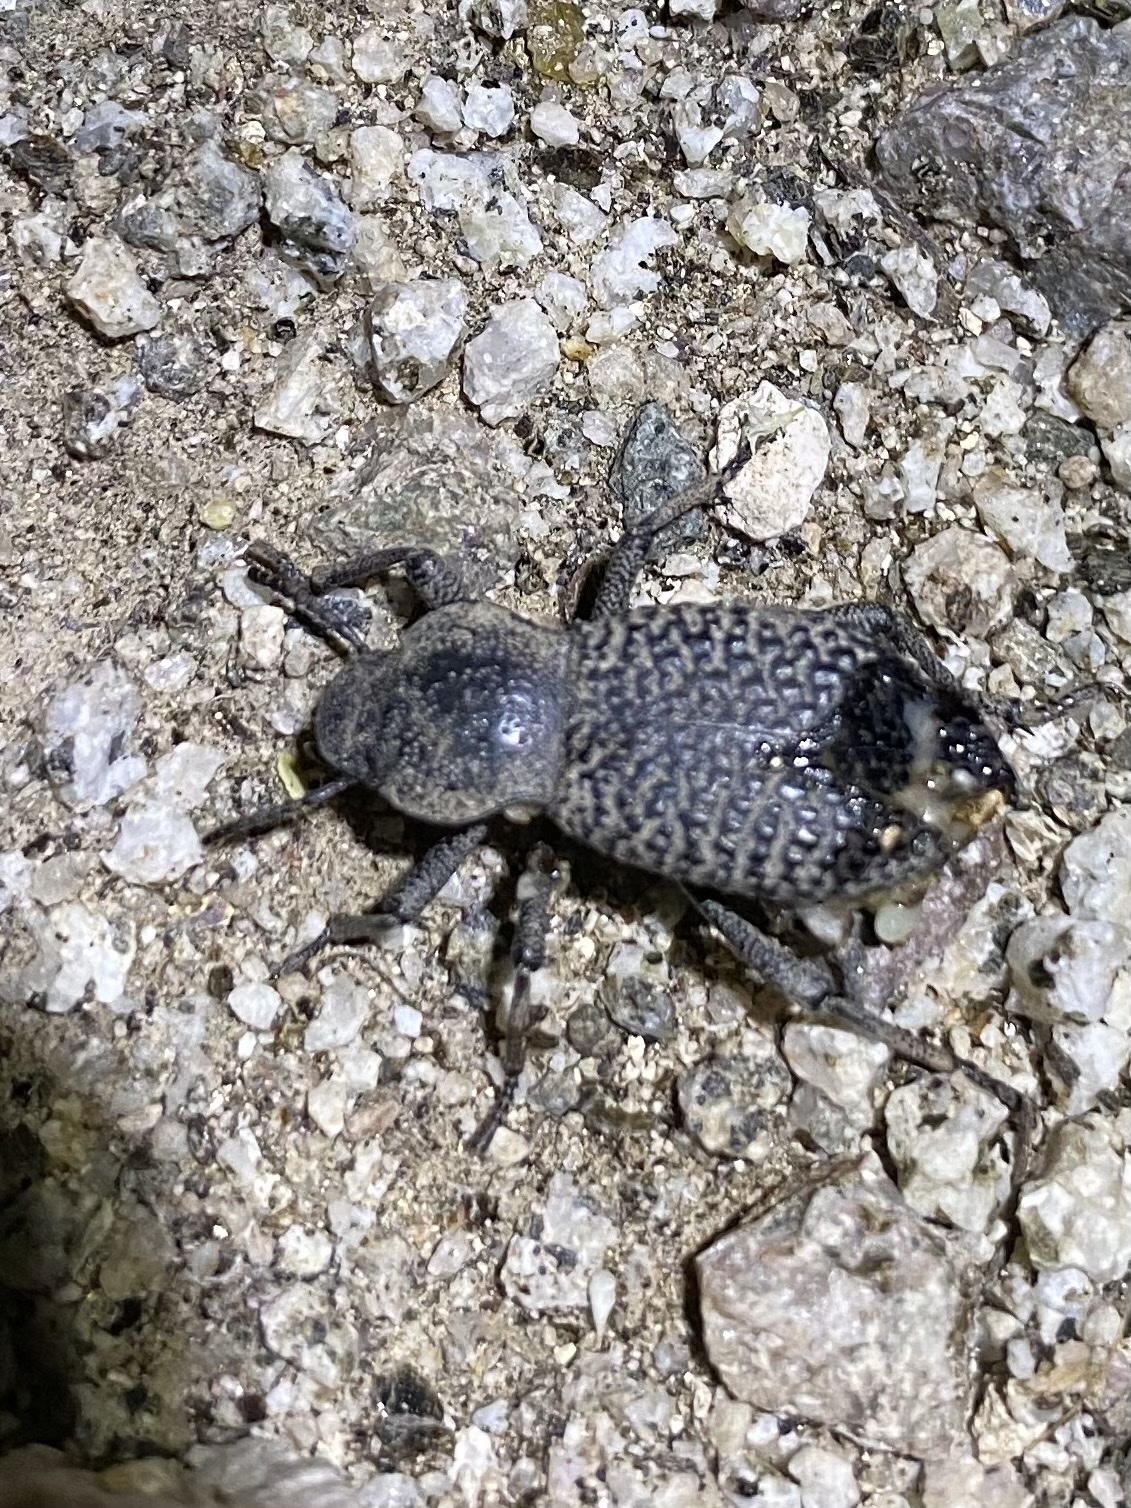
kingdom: Animalia
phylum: Arthropoda
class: Insecta
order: Coleoptera
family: Tenebrionidae
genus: Cryptoglossa
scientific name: Cryptoglossa variolosa
